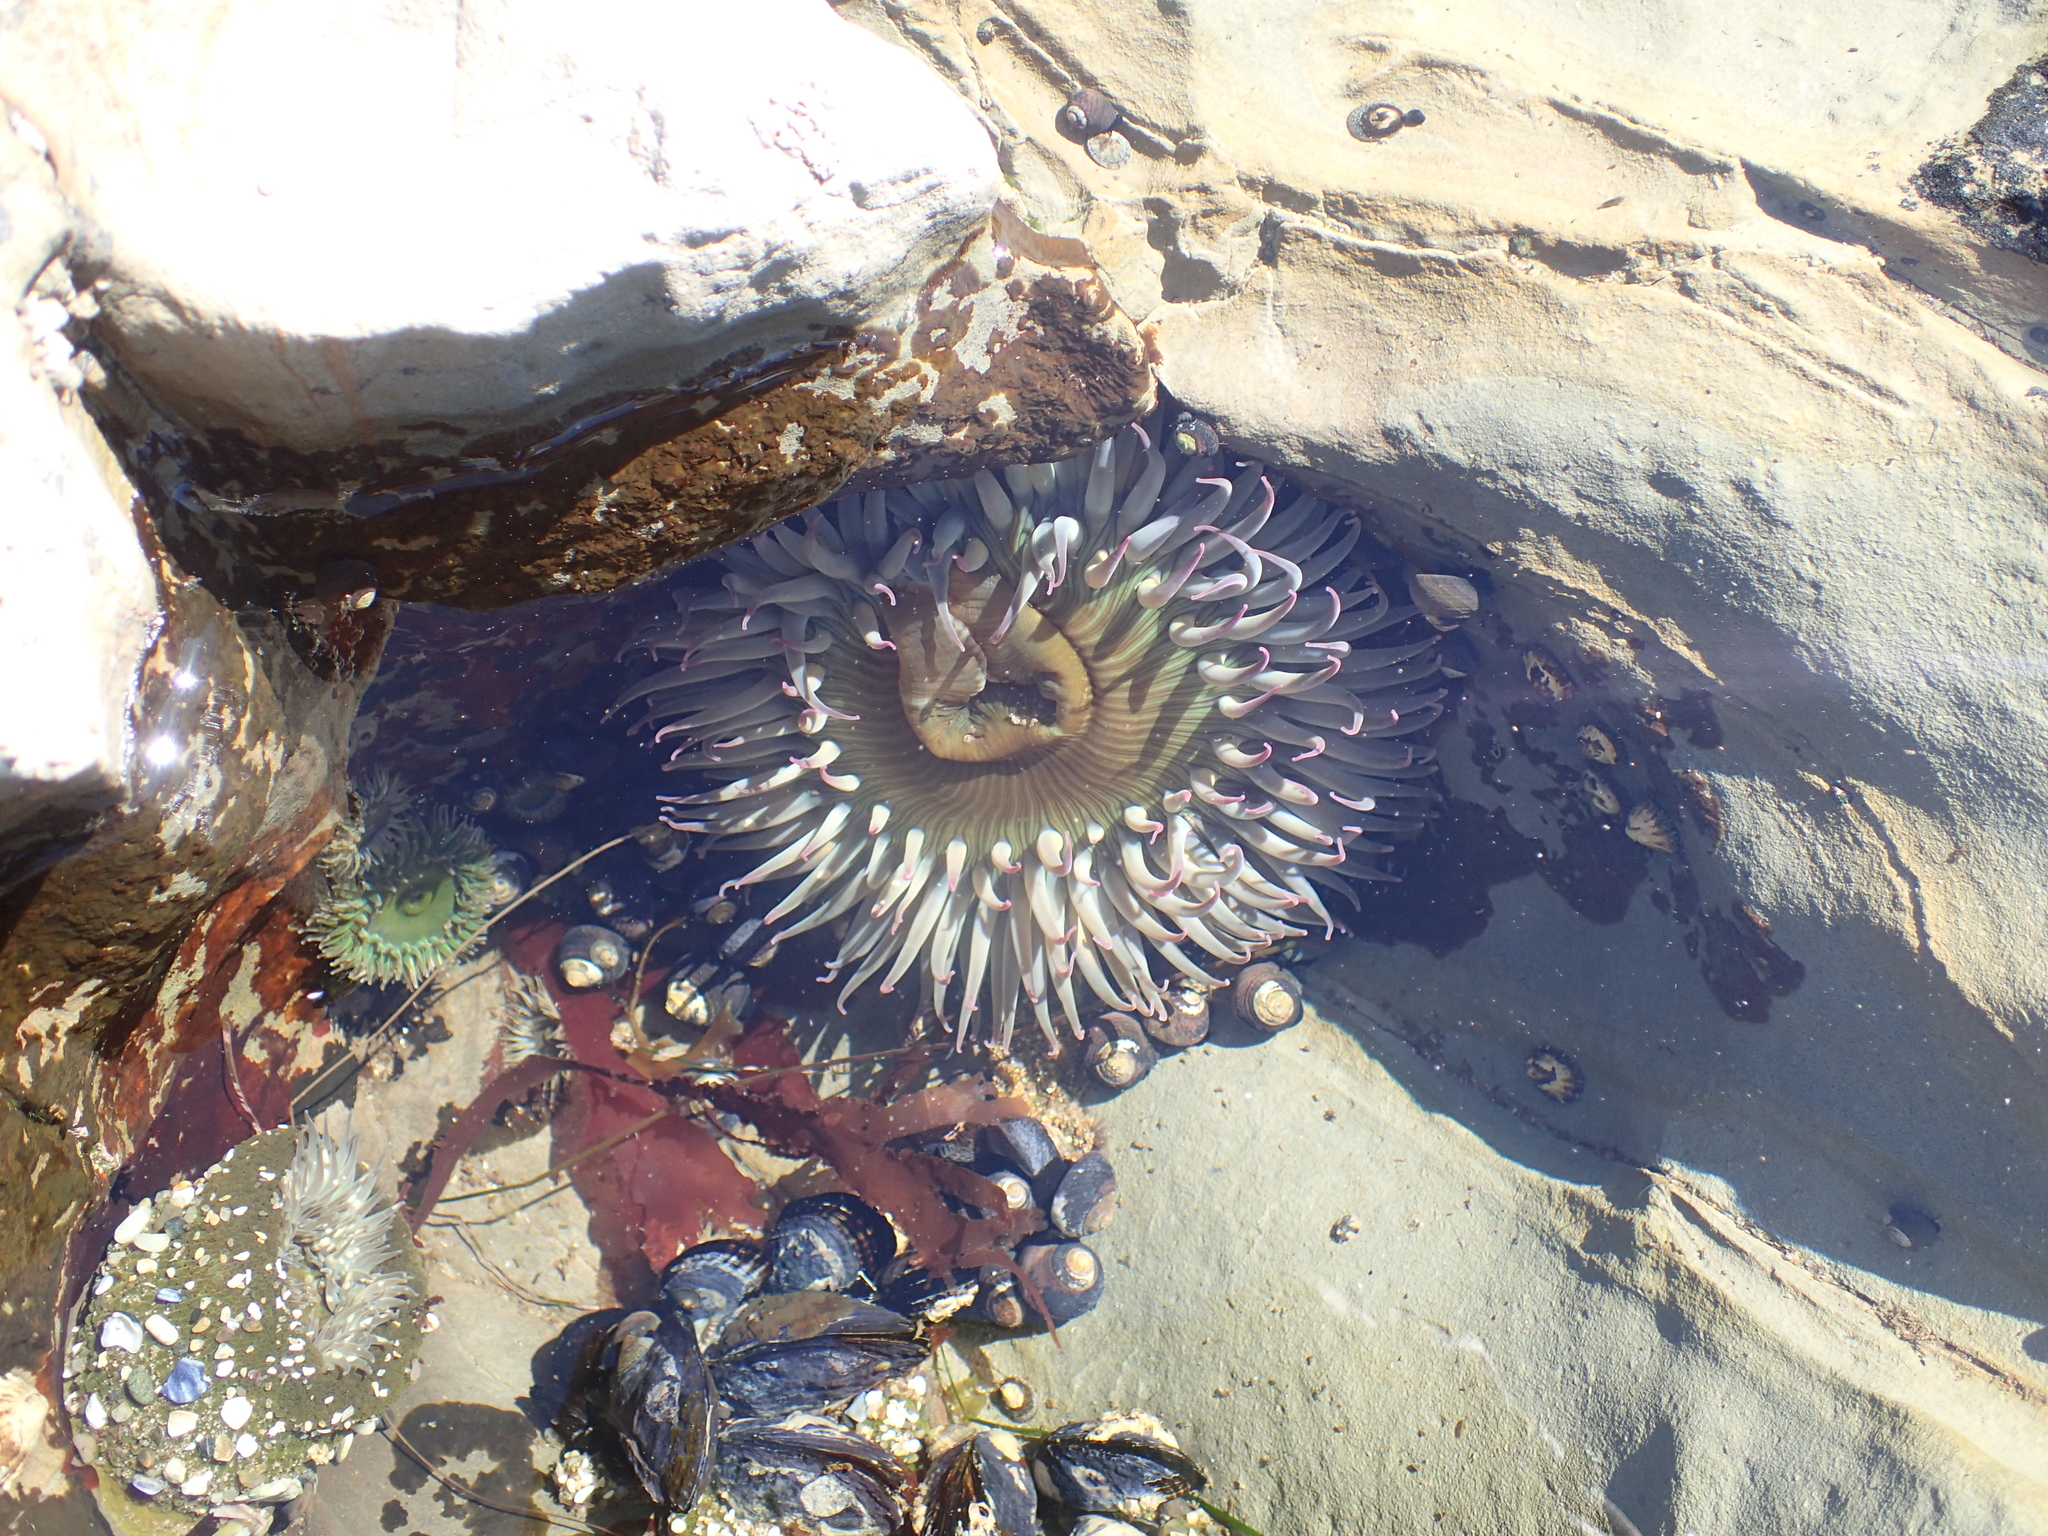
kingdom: Animalia
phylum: Cnidaria
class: Anthozoa
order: Actiniaria
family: Actiniidae
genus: Anthopleura
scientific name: Anthopleura sola
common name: Sun anemone
